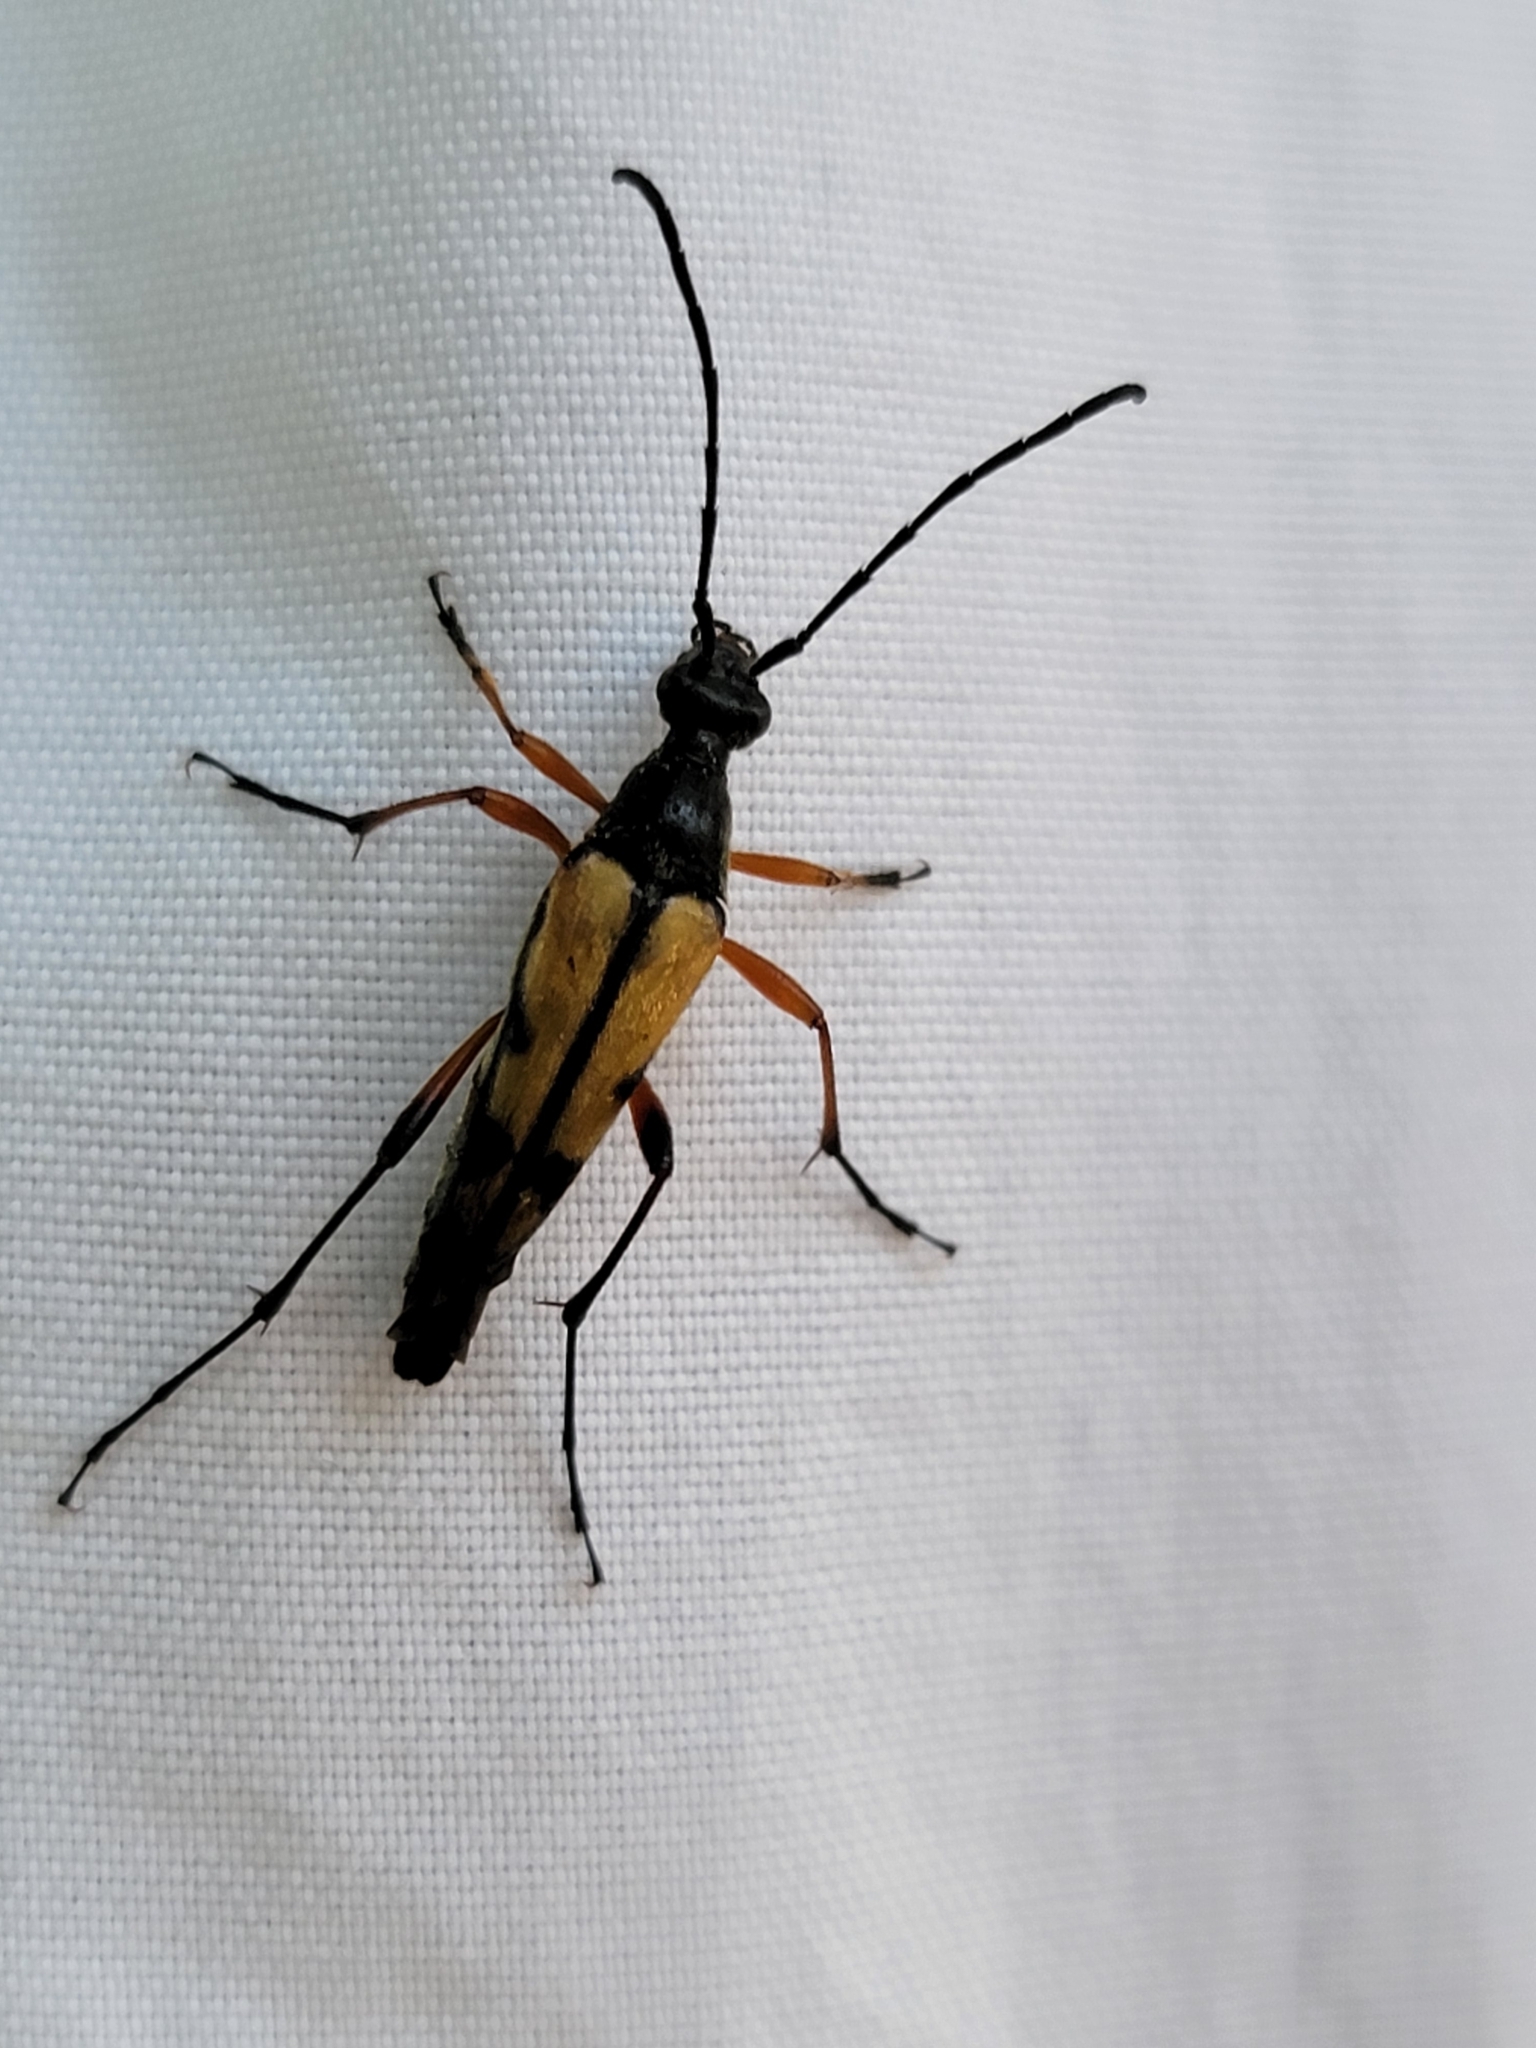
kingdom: Animalia
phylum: Arthropoda
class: Insecta
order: Coleoptera
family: Cerambycidae
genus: Strangalia
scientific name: Strangalia famelica
